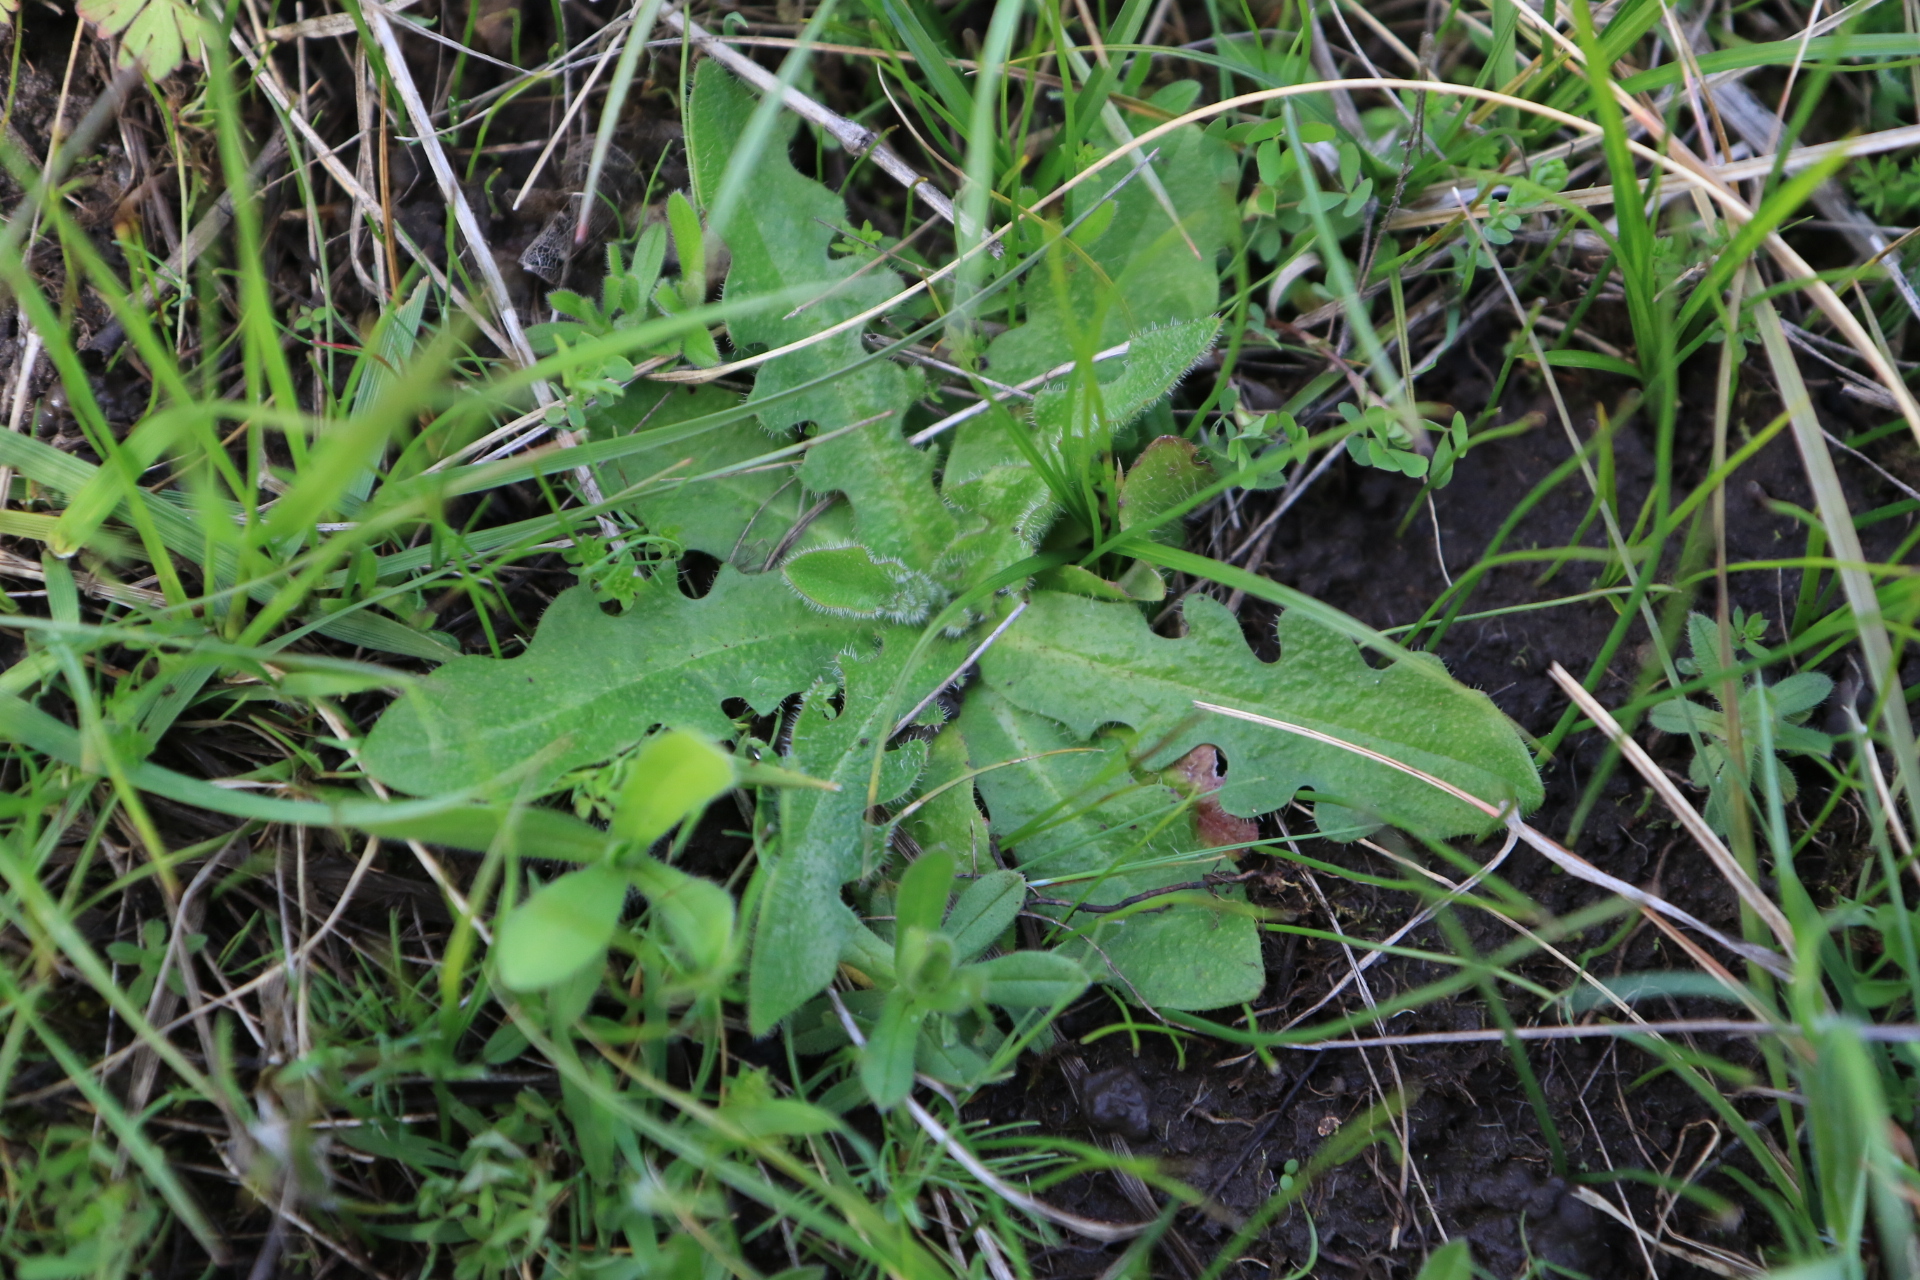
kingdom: Plantae
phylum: Tracheophyta
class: Magnoliopsida
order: Asterales
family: Asteraceae
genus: Hypochaeris
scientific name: Hypochaeris radicata
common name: Flatweed
